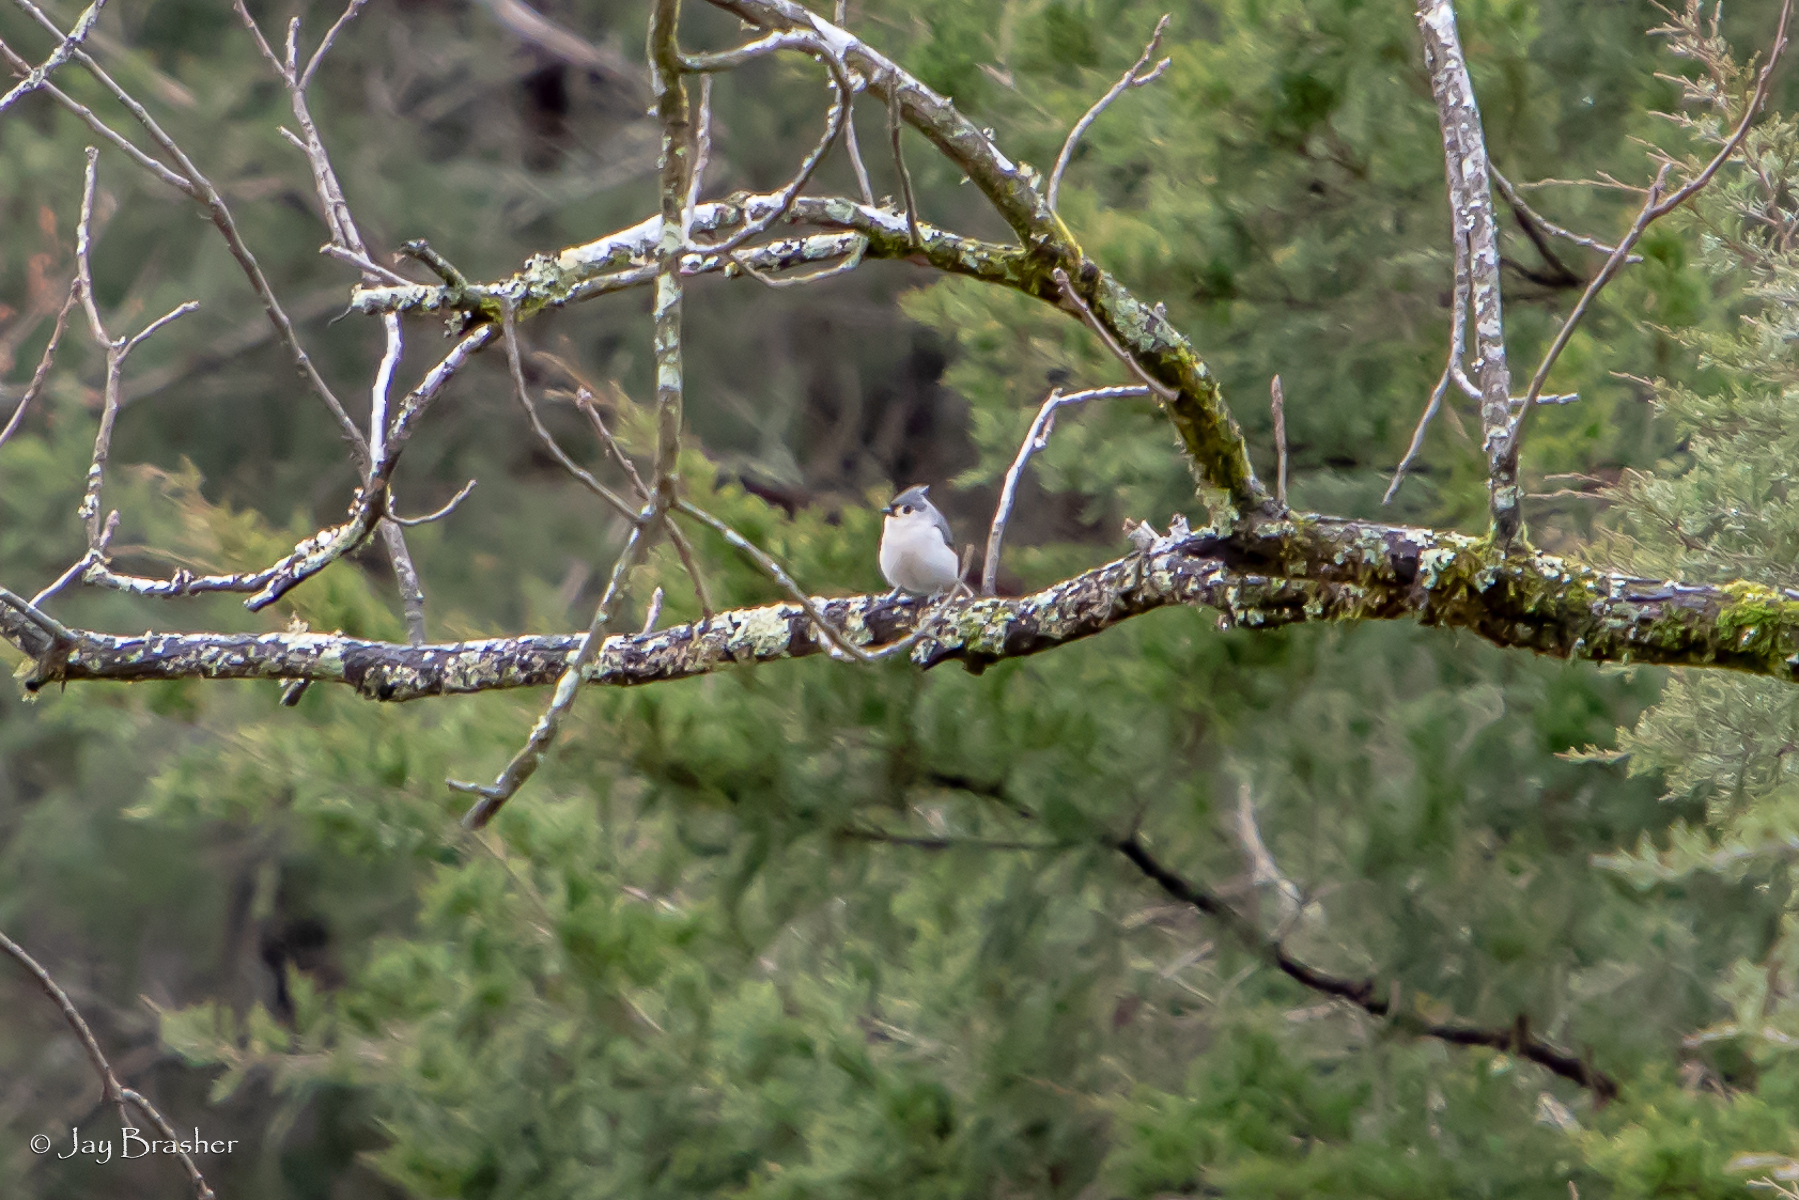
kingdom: Animalia
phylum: Chordata
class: Aves
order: Passeriformes
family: Paridae
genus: Baeolophus
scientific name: Baeolophus bicolor
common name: Tufted titmouse
